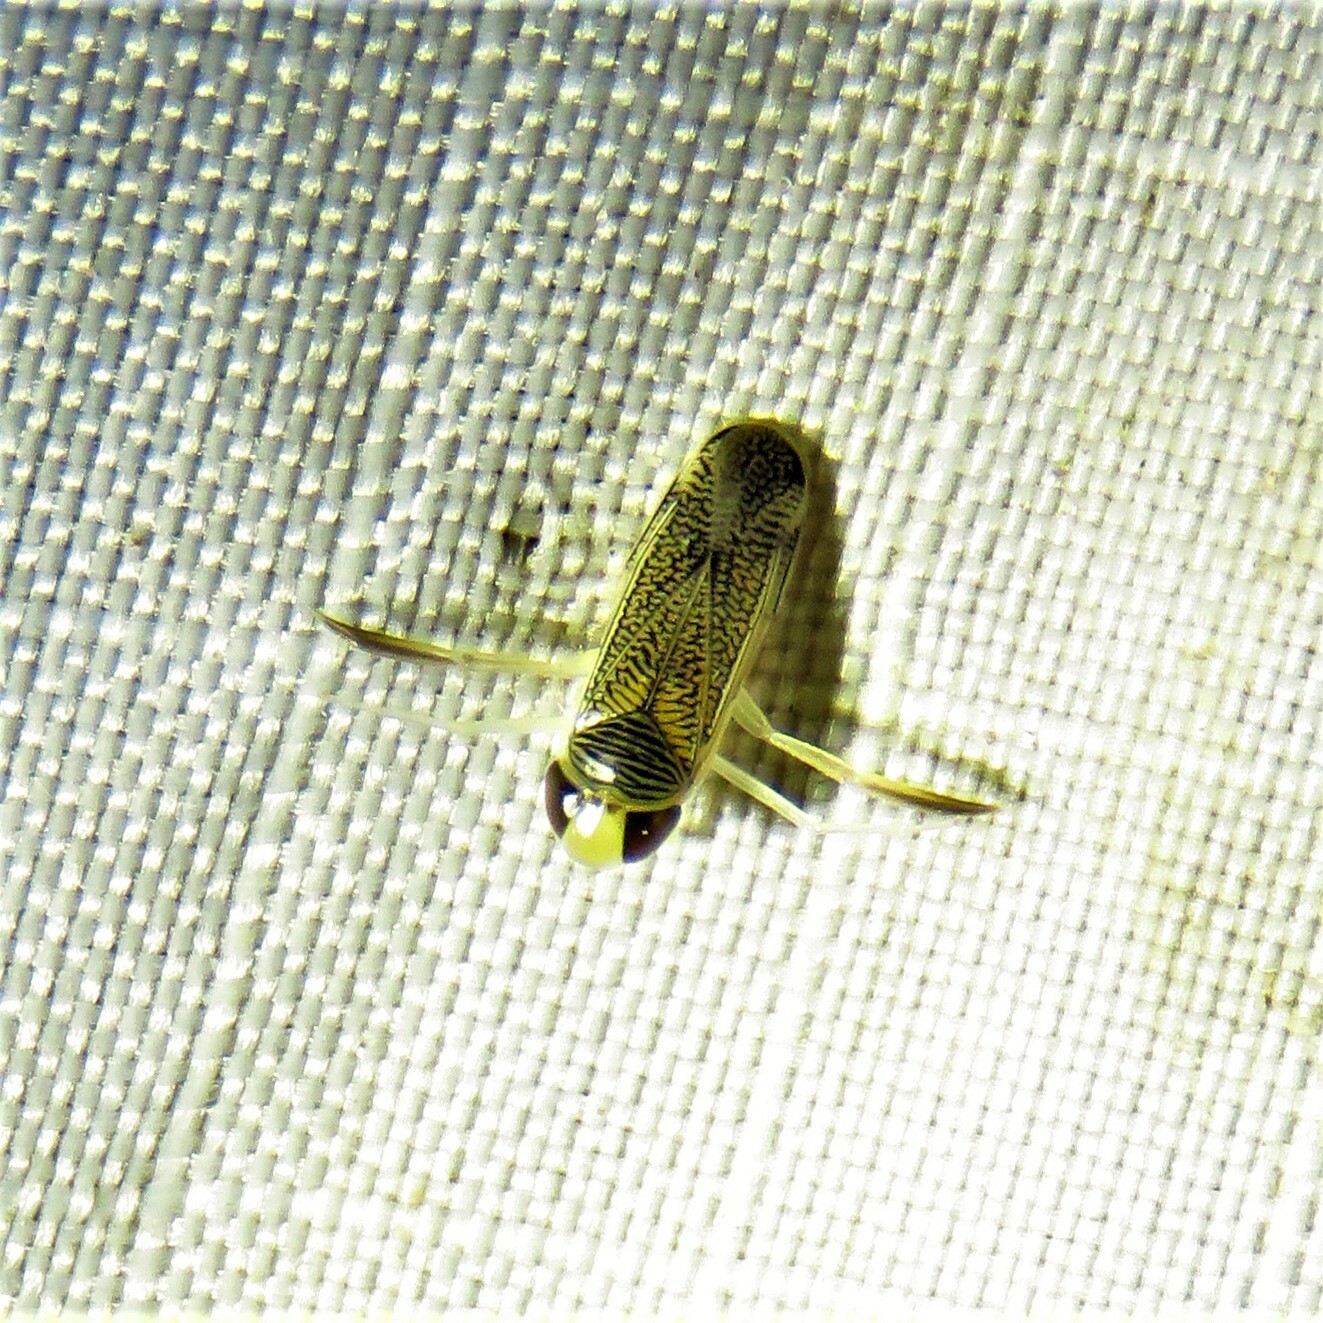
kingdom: Animalia
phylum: Arthropoda
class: Insecta
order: Hemiptera
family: Corixidae
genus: Trichocorixa
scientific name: Trichocorixa
